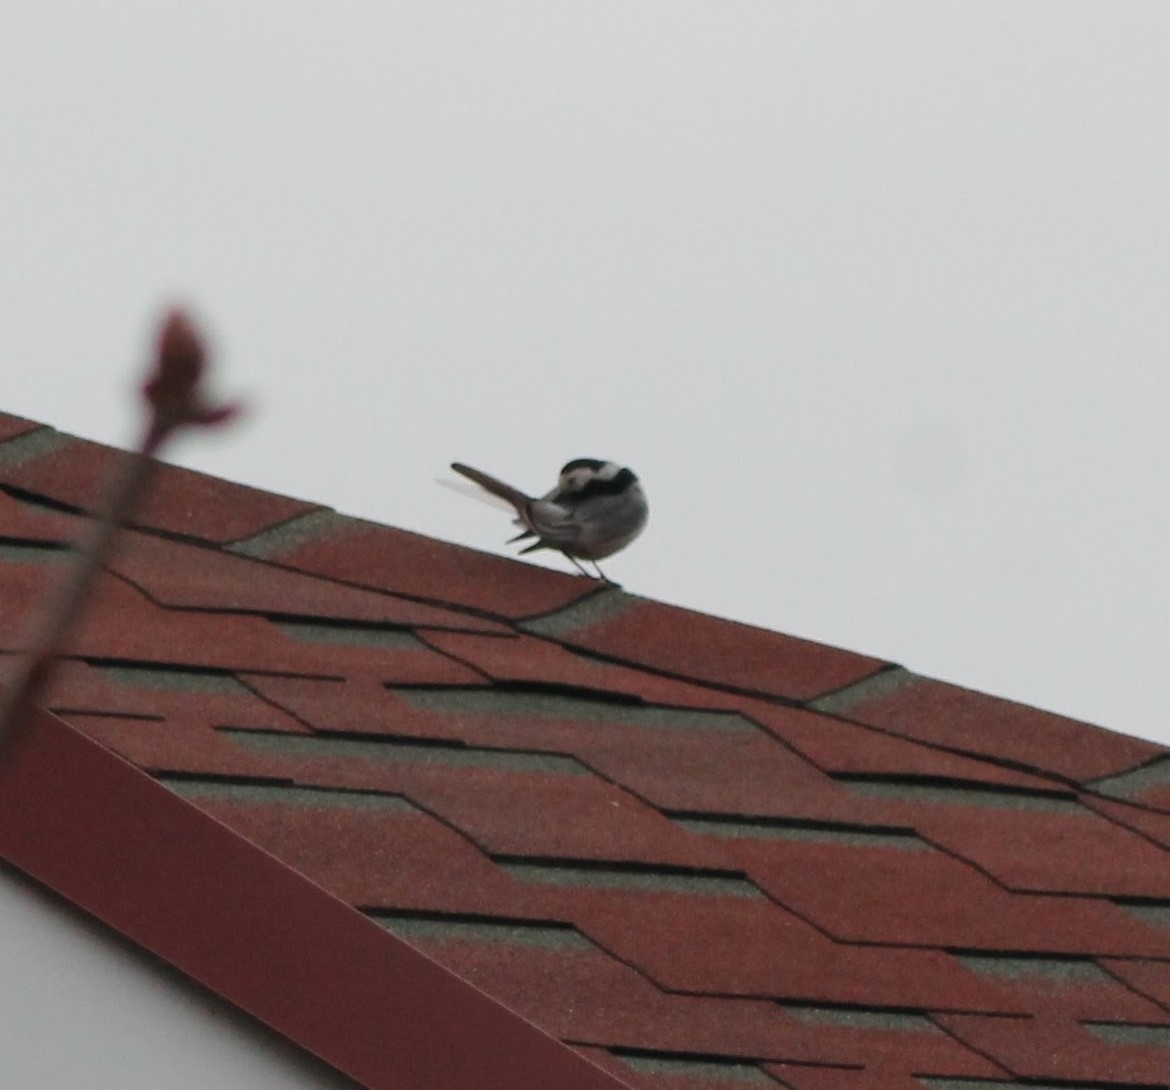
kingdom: Animalia
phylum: Chordata
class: Aves
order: Passeriformes
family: Motacillidae
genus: Motacilla
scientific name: Motacilla alba
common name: White wagtail
